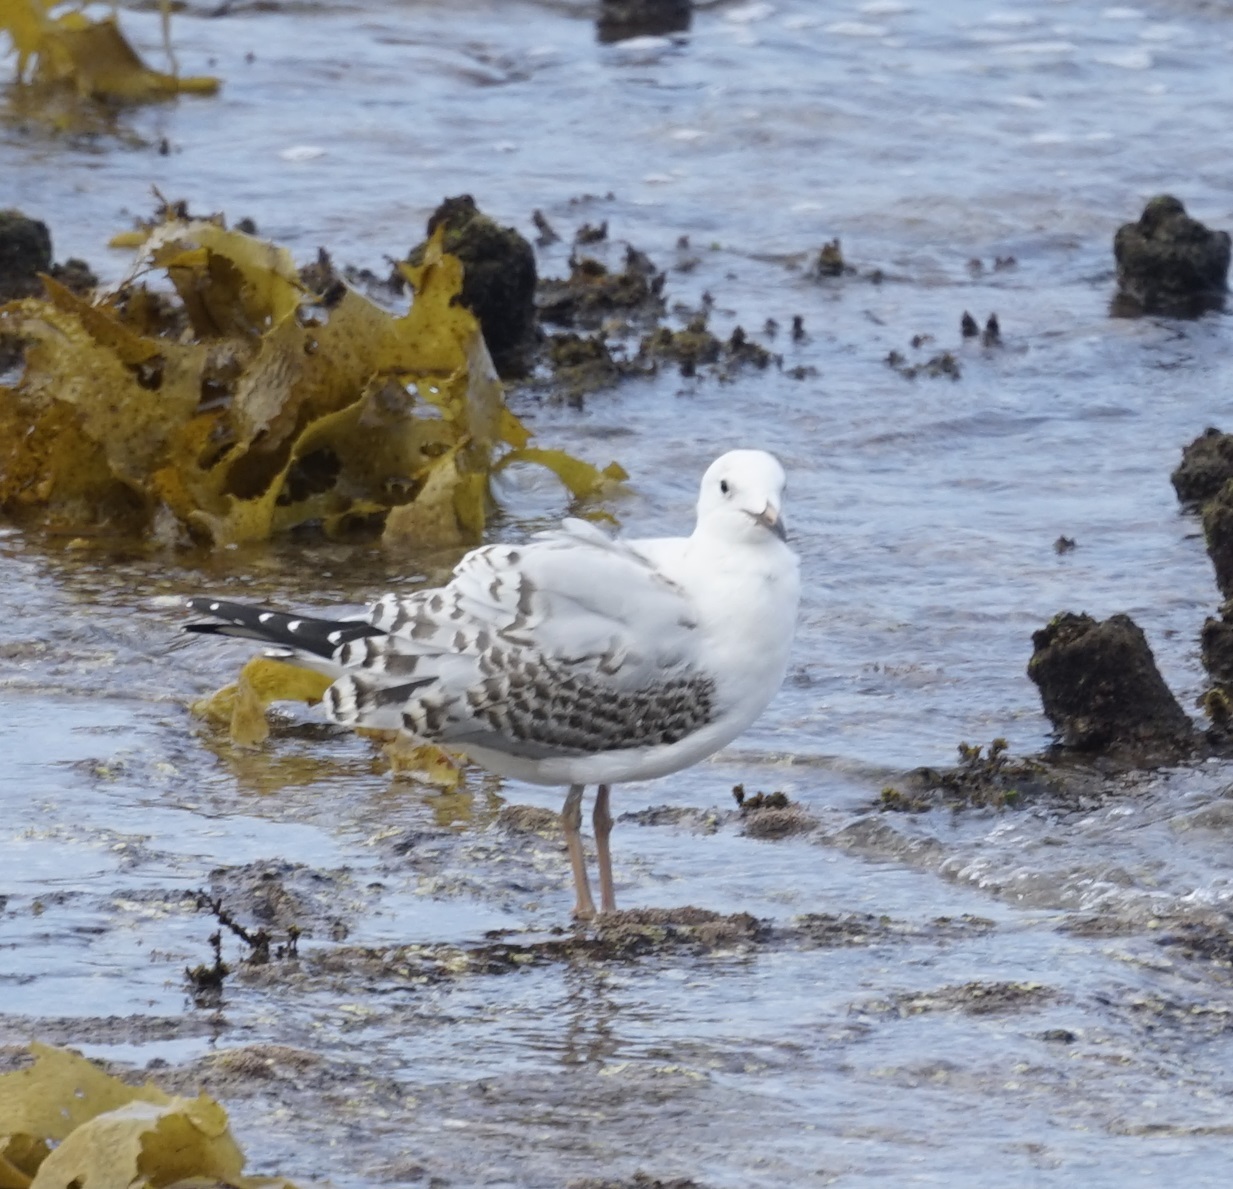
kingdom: Animalia
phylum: Chordata
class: Aves
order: Charadriiformes
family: Laridae
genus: Chroicocephalus
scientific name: Chroicocephalus novaehollandiae
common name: Silver gull
